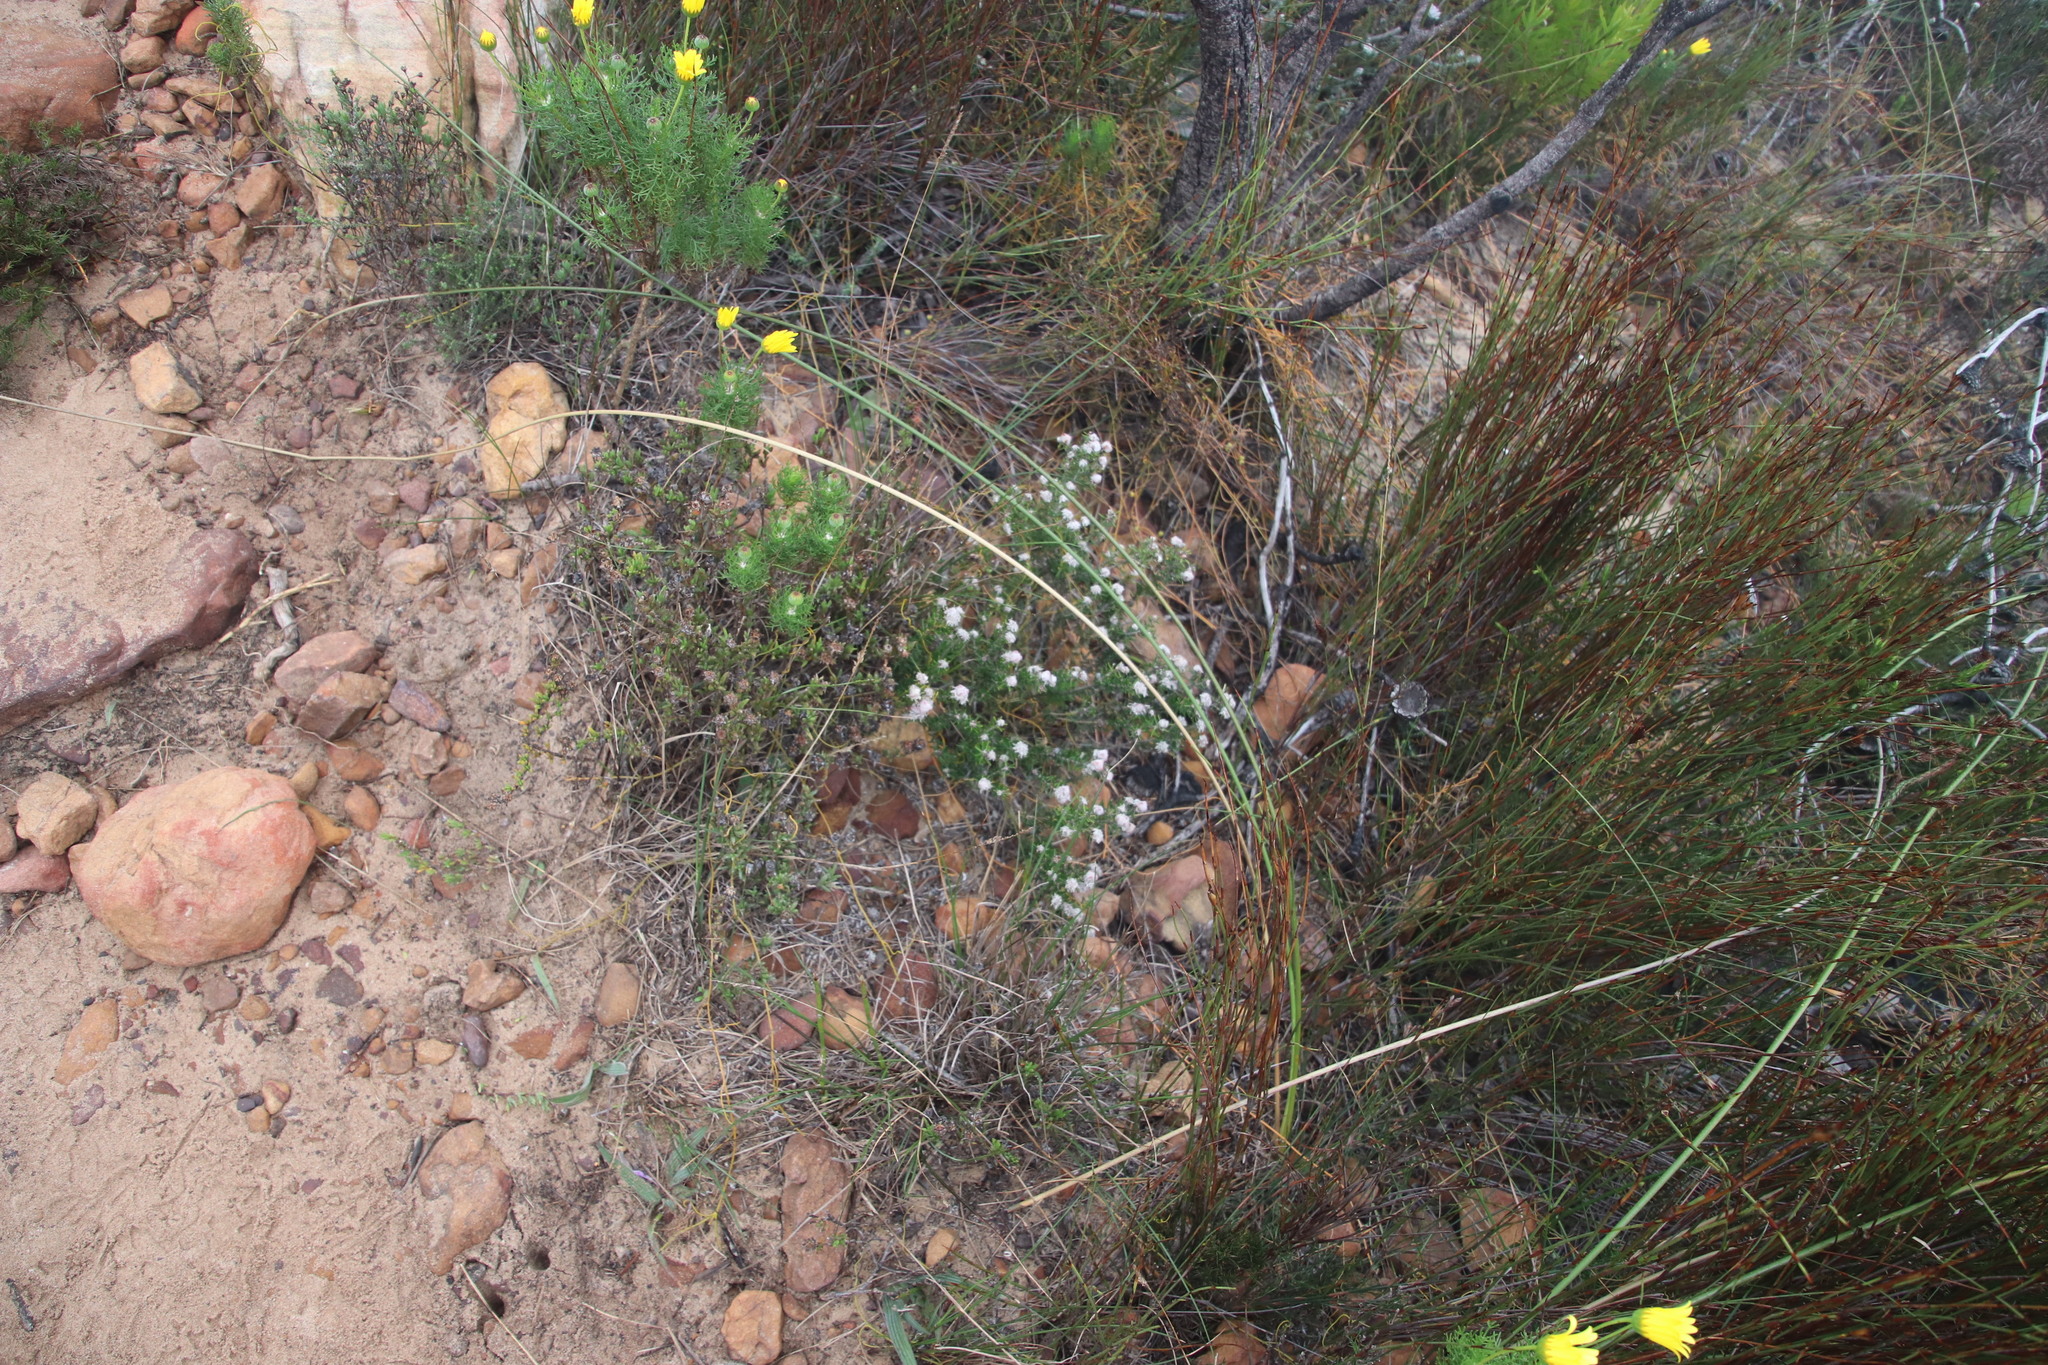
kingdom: Plantae
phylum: Tracheophyta
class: Magnoliopsida
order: Rosales
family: Rhamnaceae
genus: Trichocephalus
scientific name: Trichocephalus stipularis
